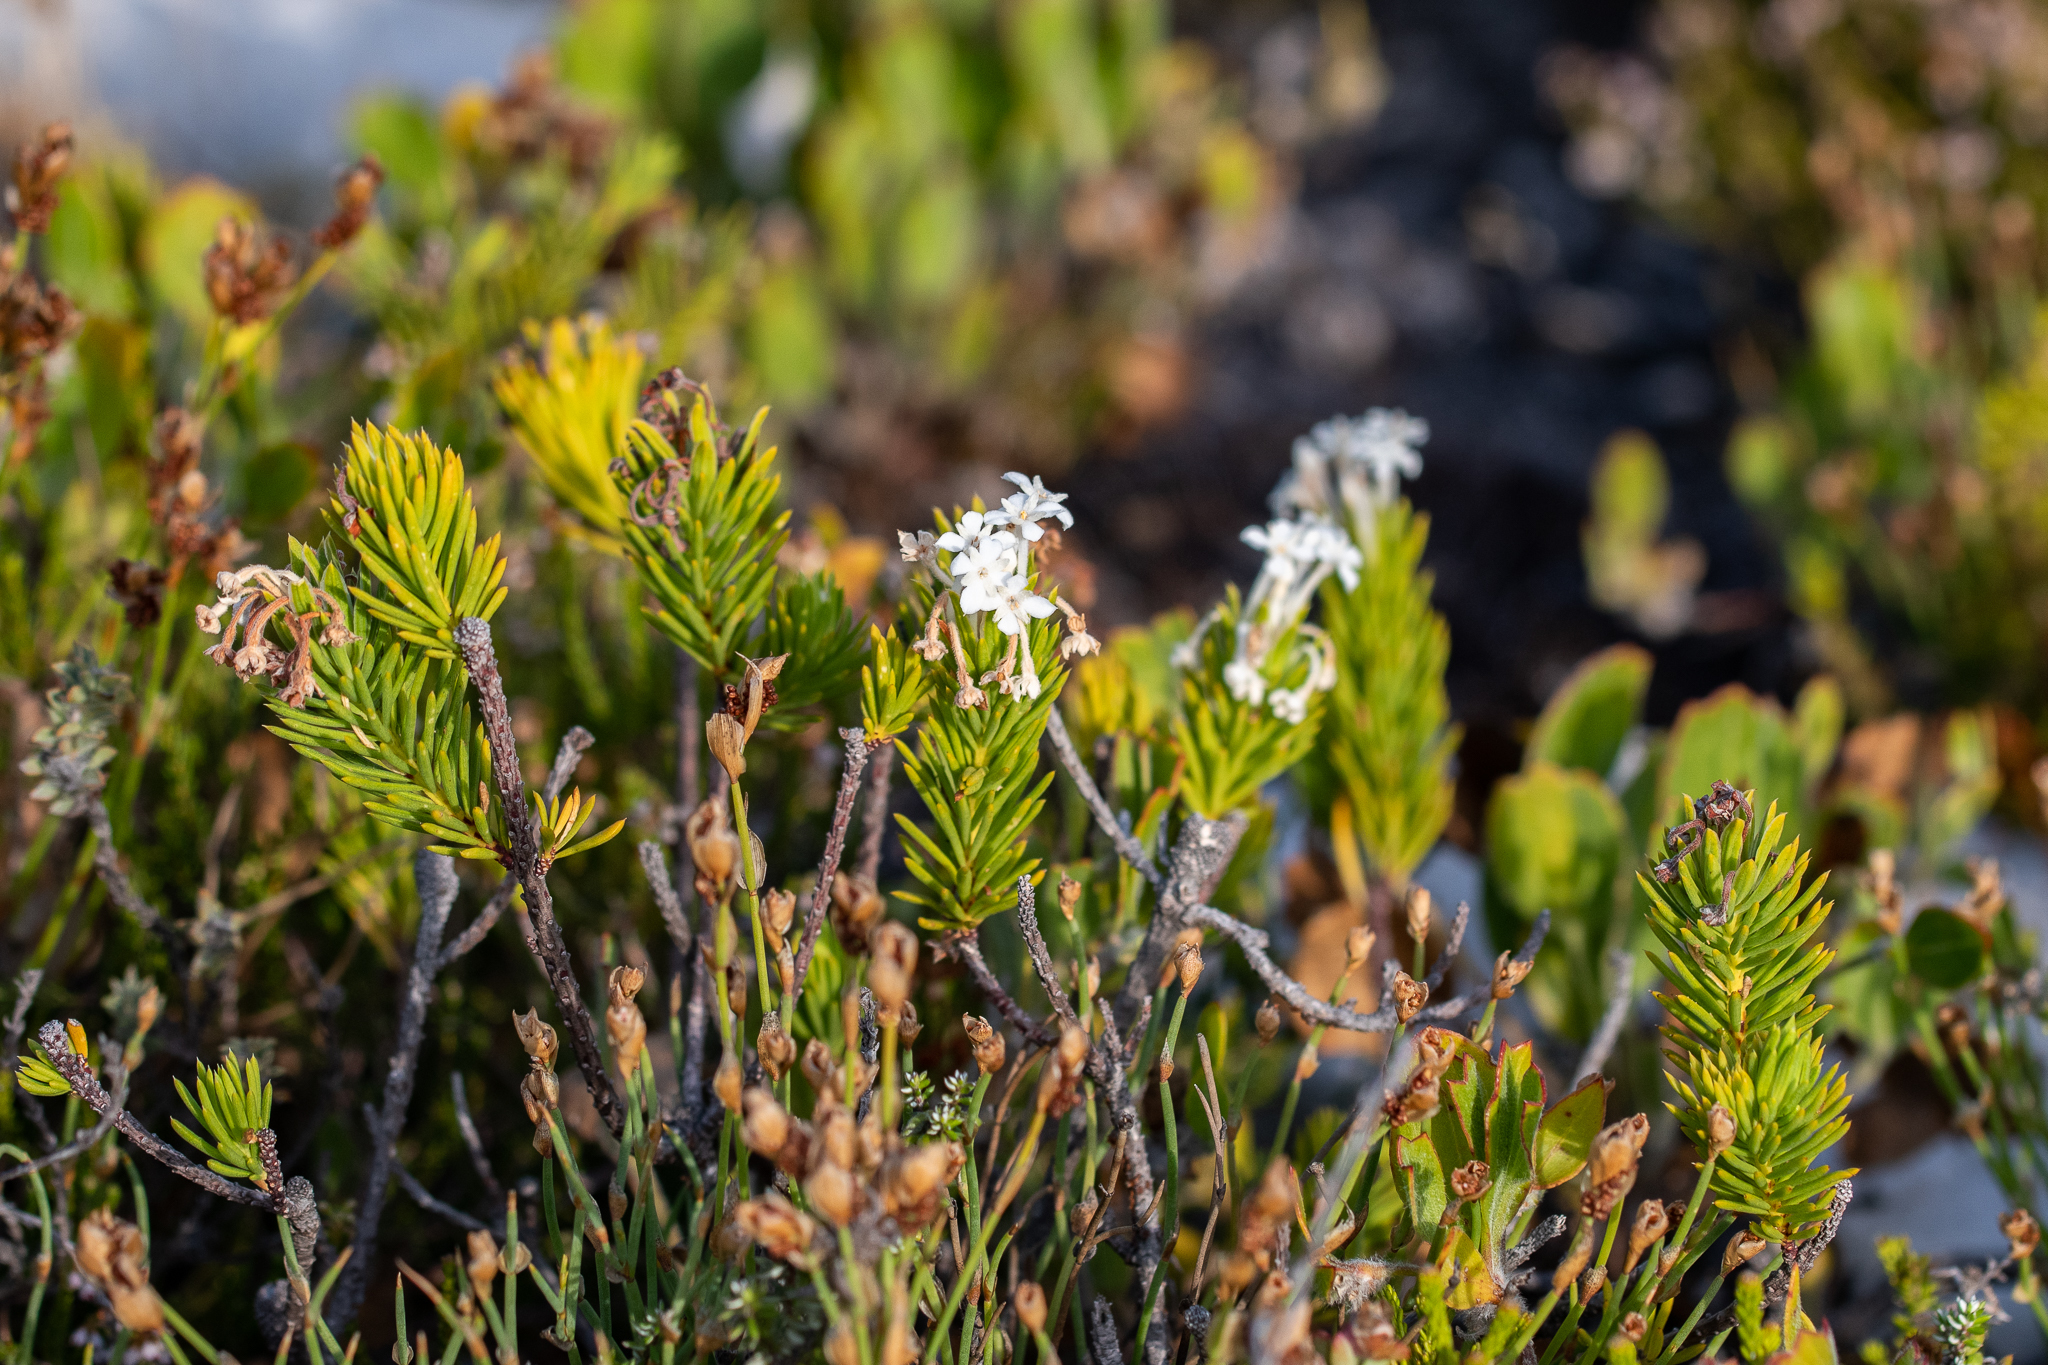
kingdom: Plantae
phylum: Tracheophyta
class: Magnoliopsida
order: Malvales
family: Thymelaeaceae
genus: Gnidia
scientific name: Gnidia pinifolia
